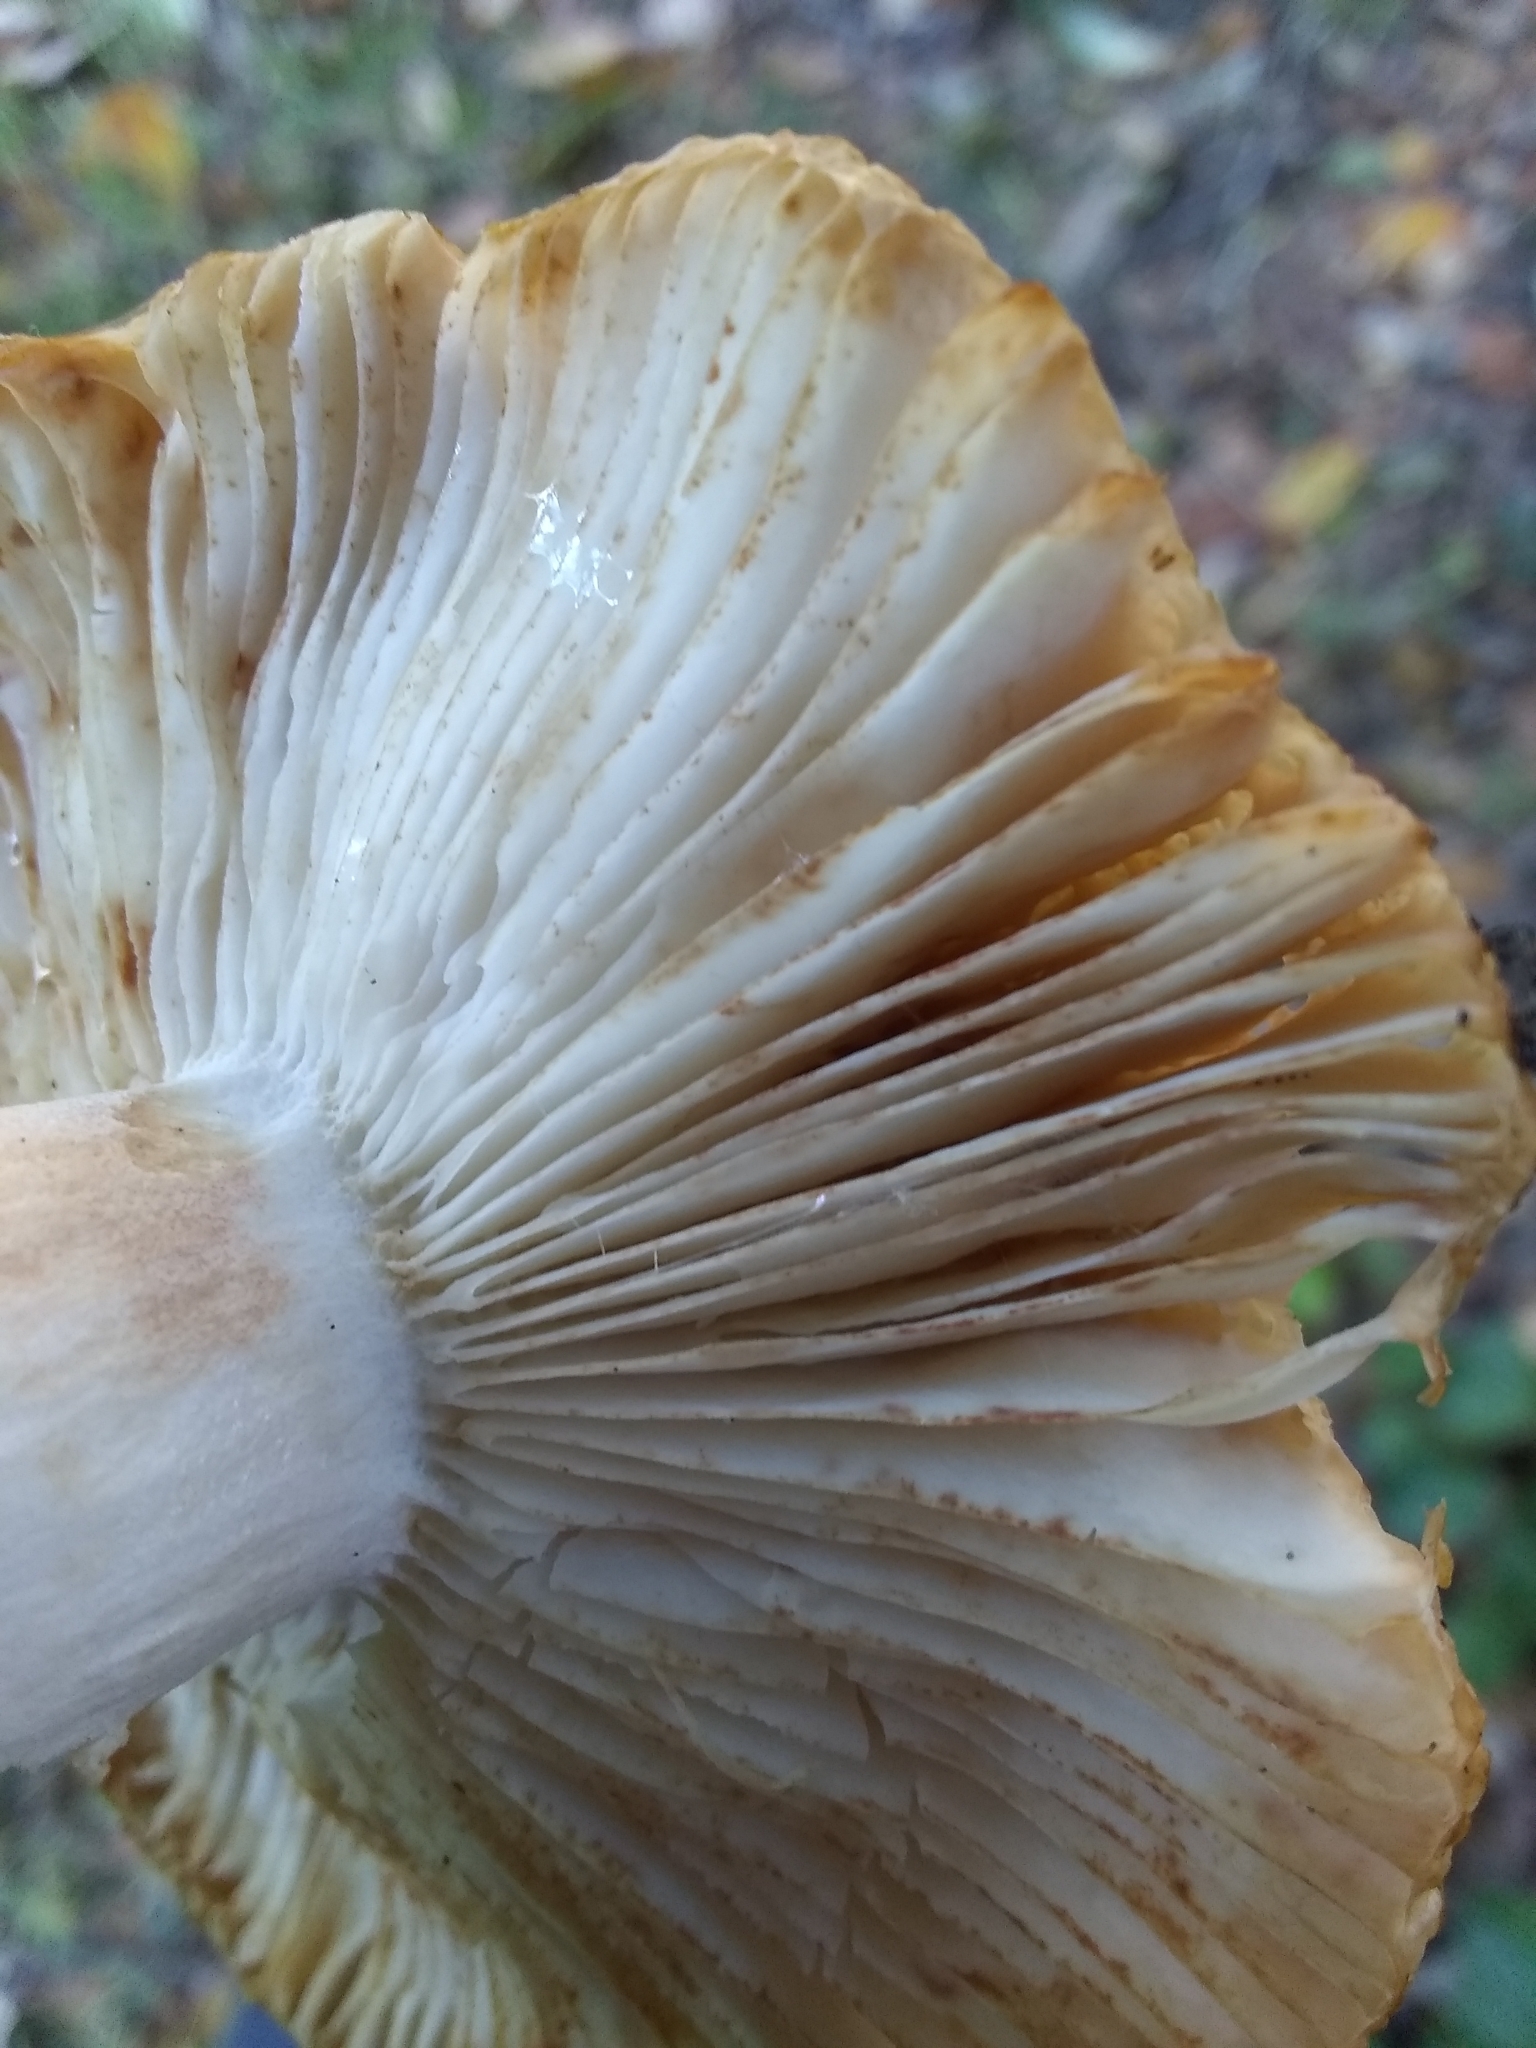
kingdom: Fungi
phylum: Basidiomycota
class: Agaricomycetes
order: Russulales
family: Russulaceae
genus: Russula
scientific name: Russula cerolens
